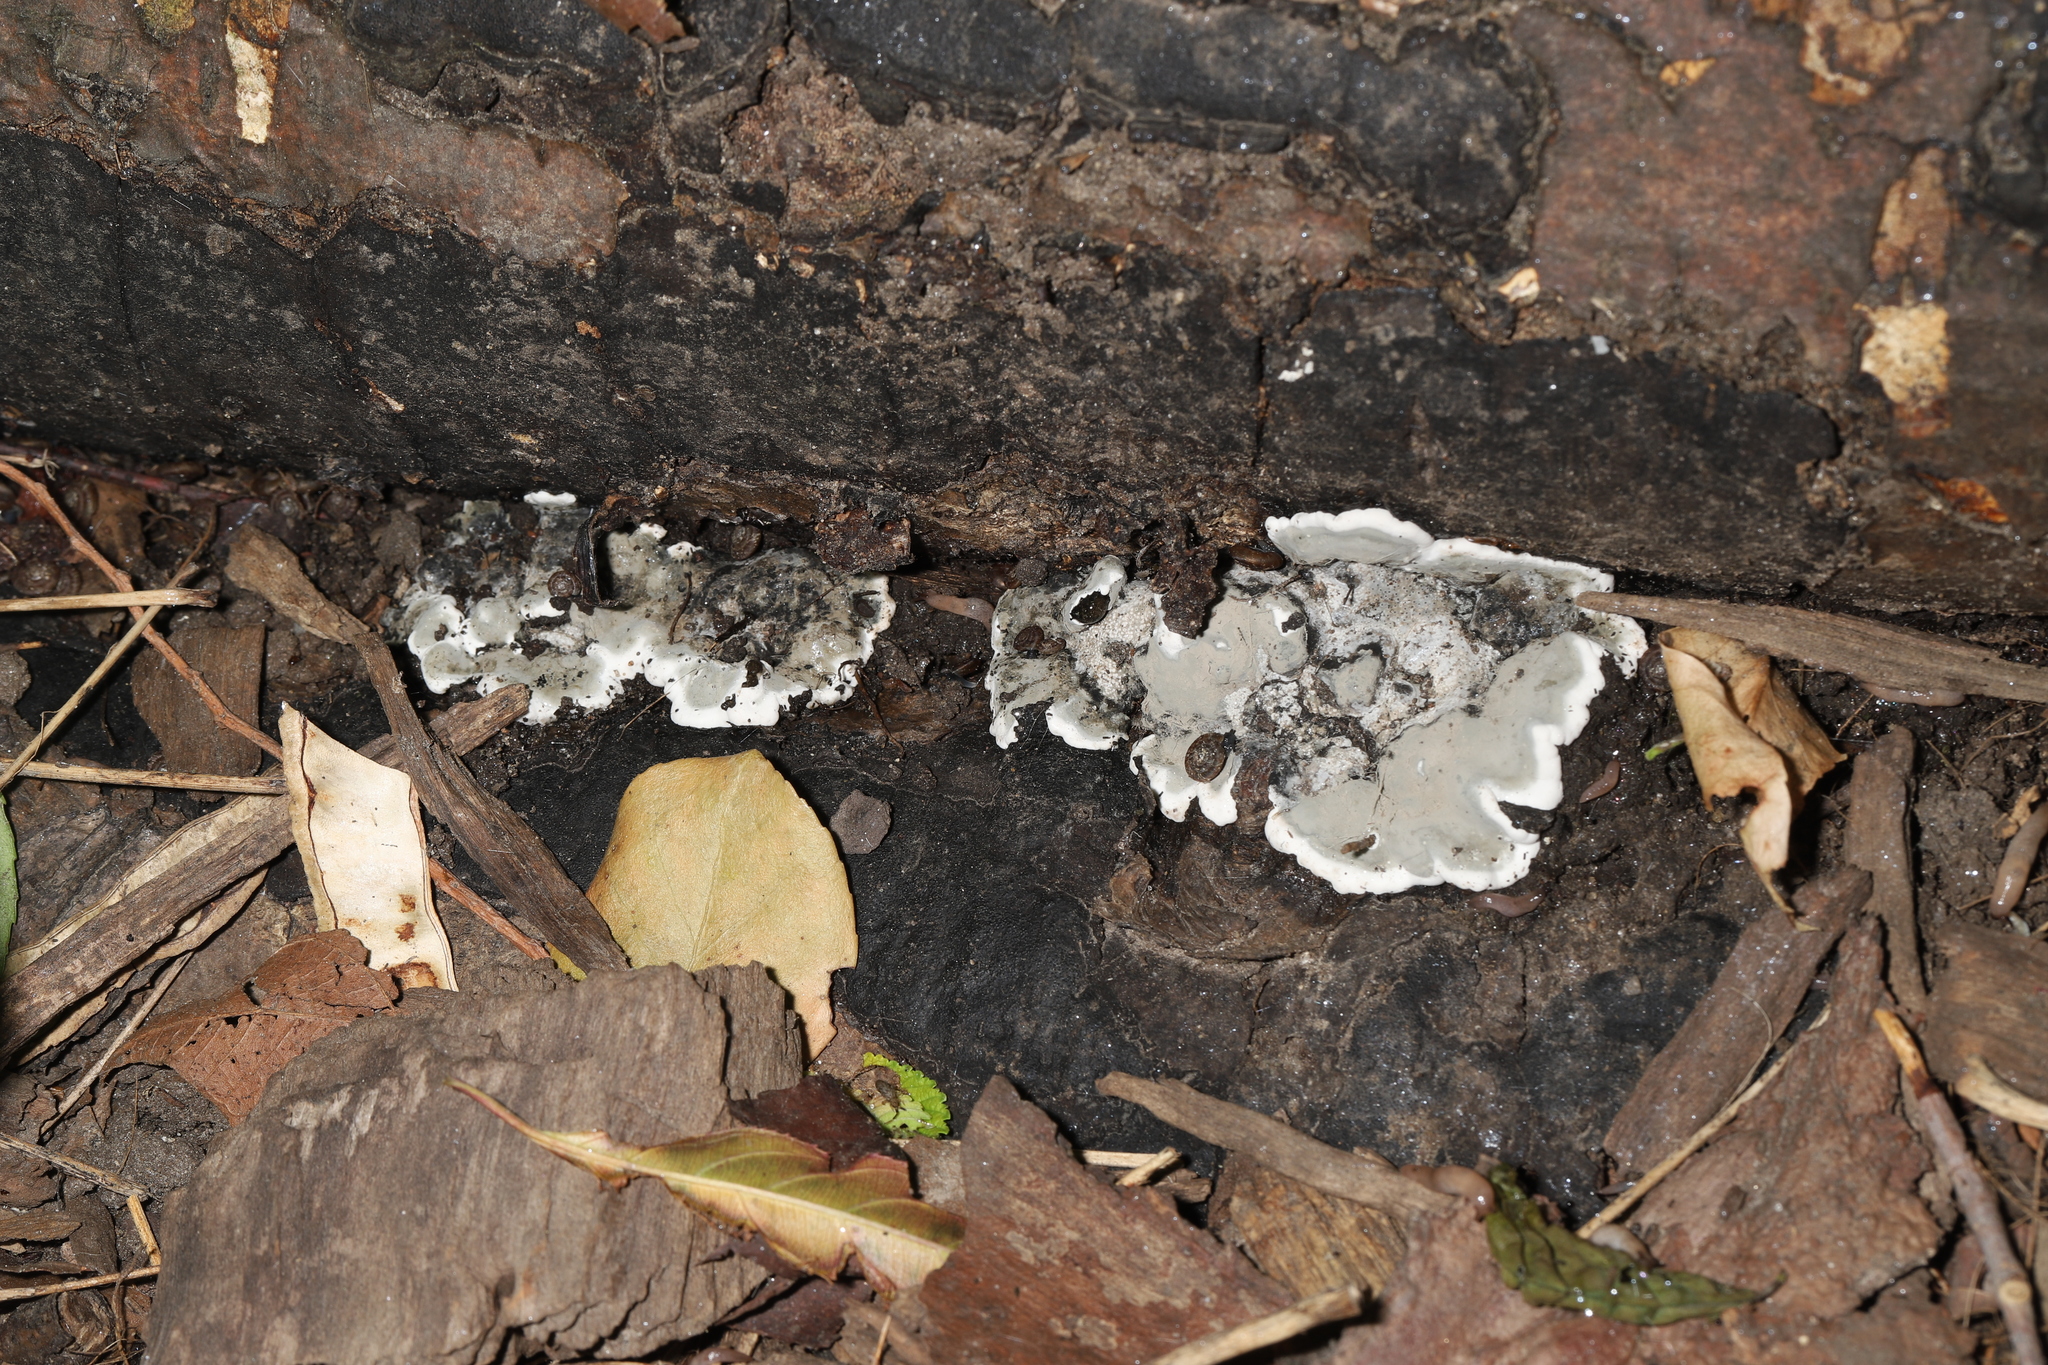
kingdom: Fungi
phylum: Ascomycota
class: Sordariomycetes
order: Xylariales
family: Xylariaceae
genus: Kretzschmaria
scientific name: Kretzschmaria deusta
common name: Brittle cinder
